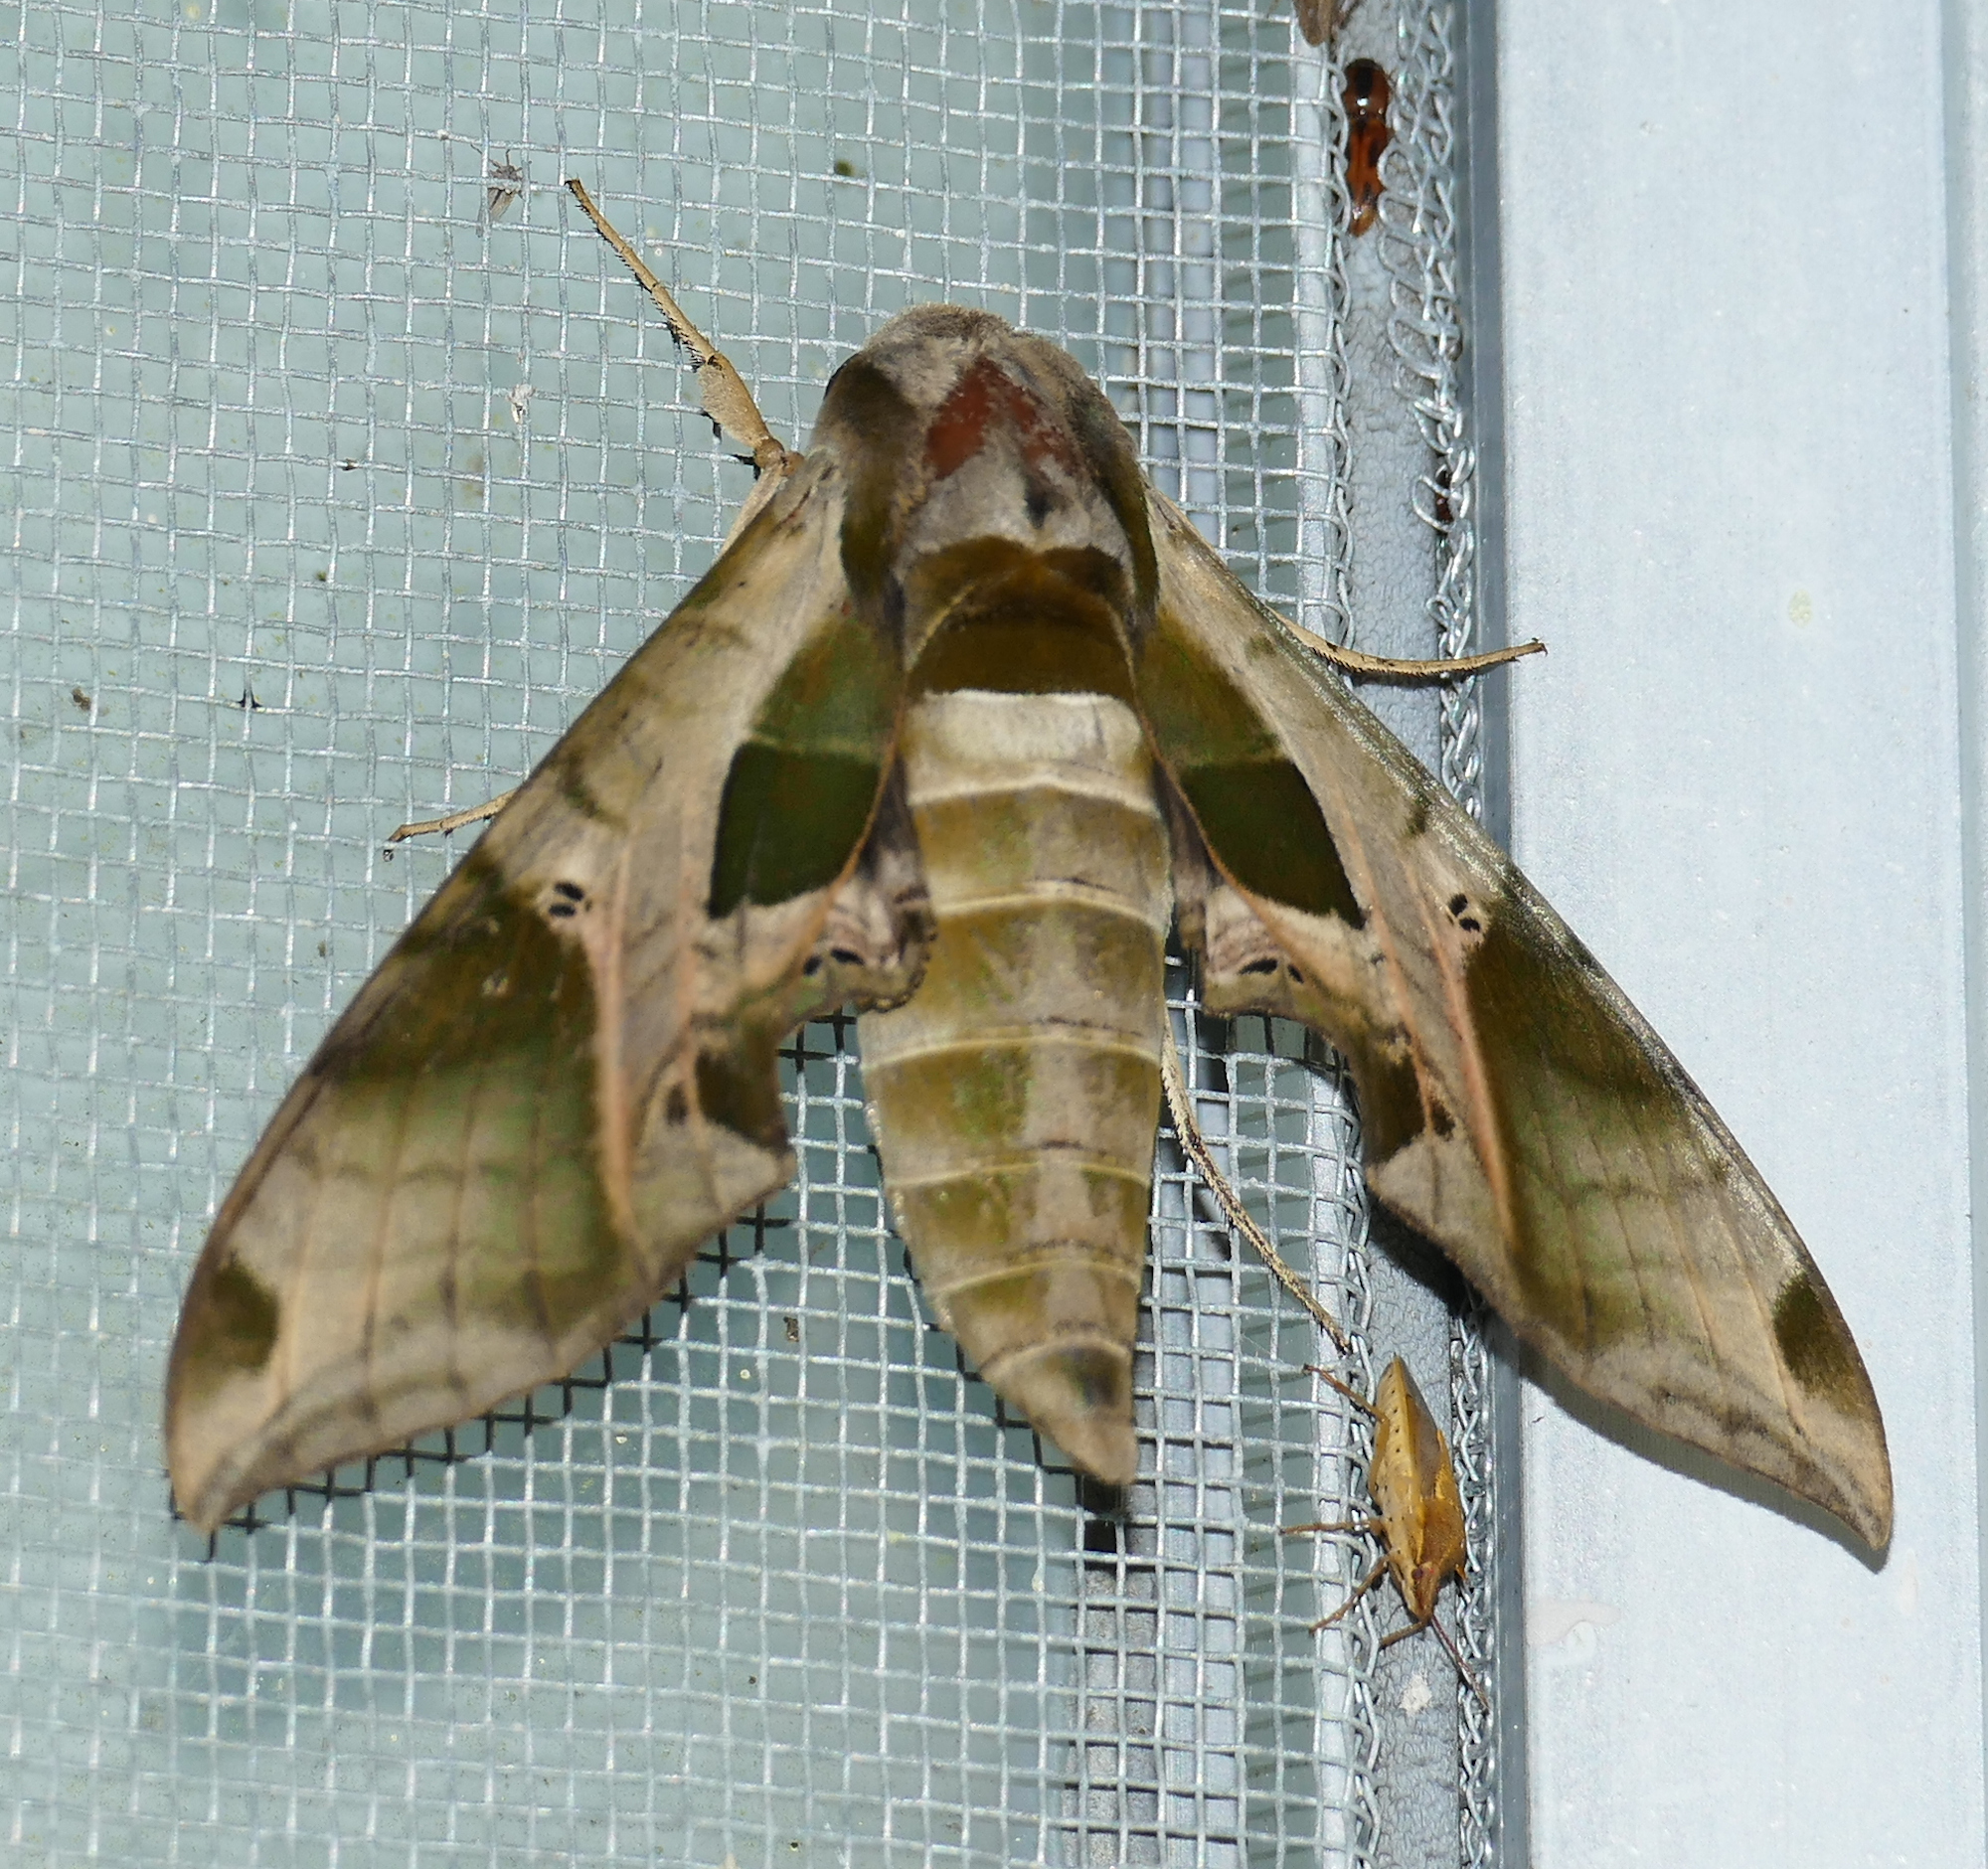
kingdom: Animalia
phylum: Arthropoda
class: Insecta
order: Lepidoptera
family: Sphingidae
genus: Eumorpha
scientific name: Eumorpha pandorus
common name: Pandora sphinx
